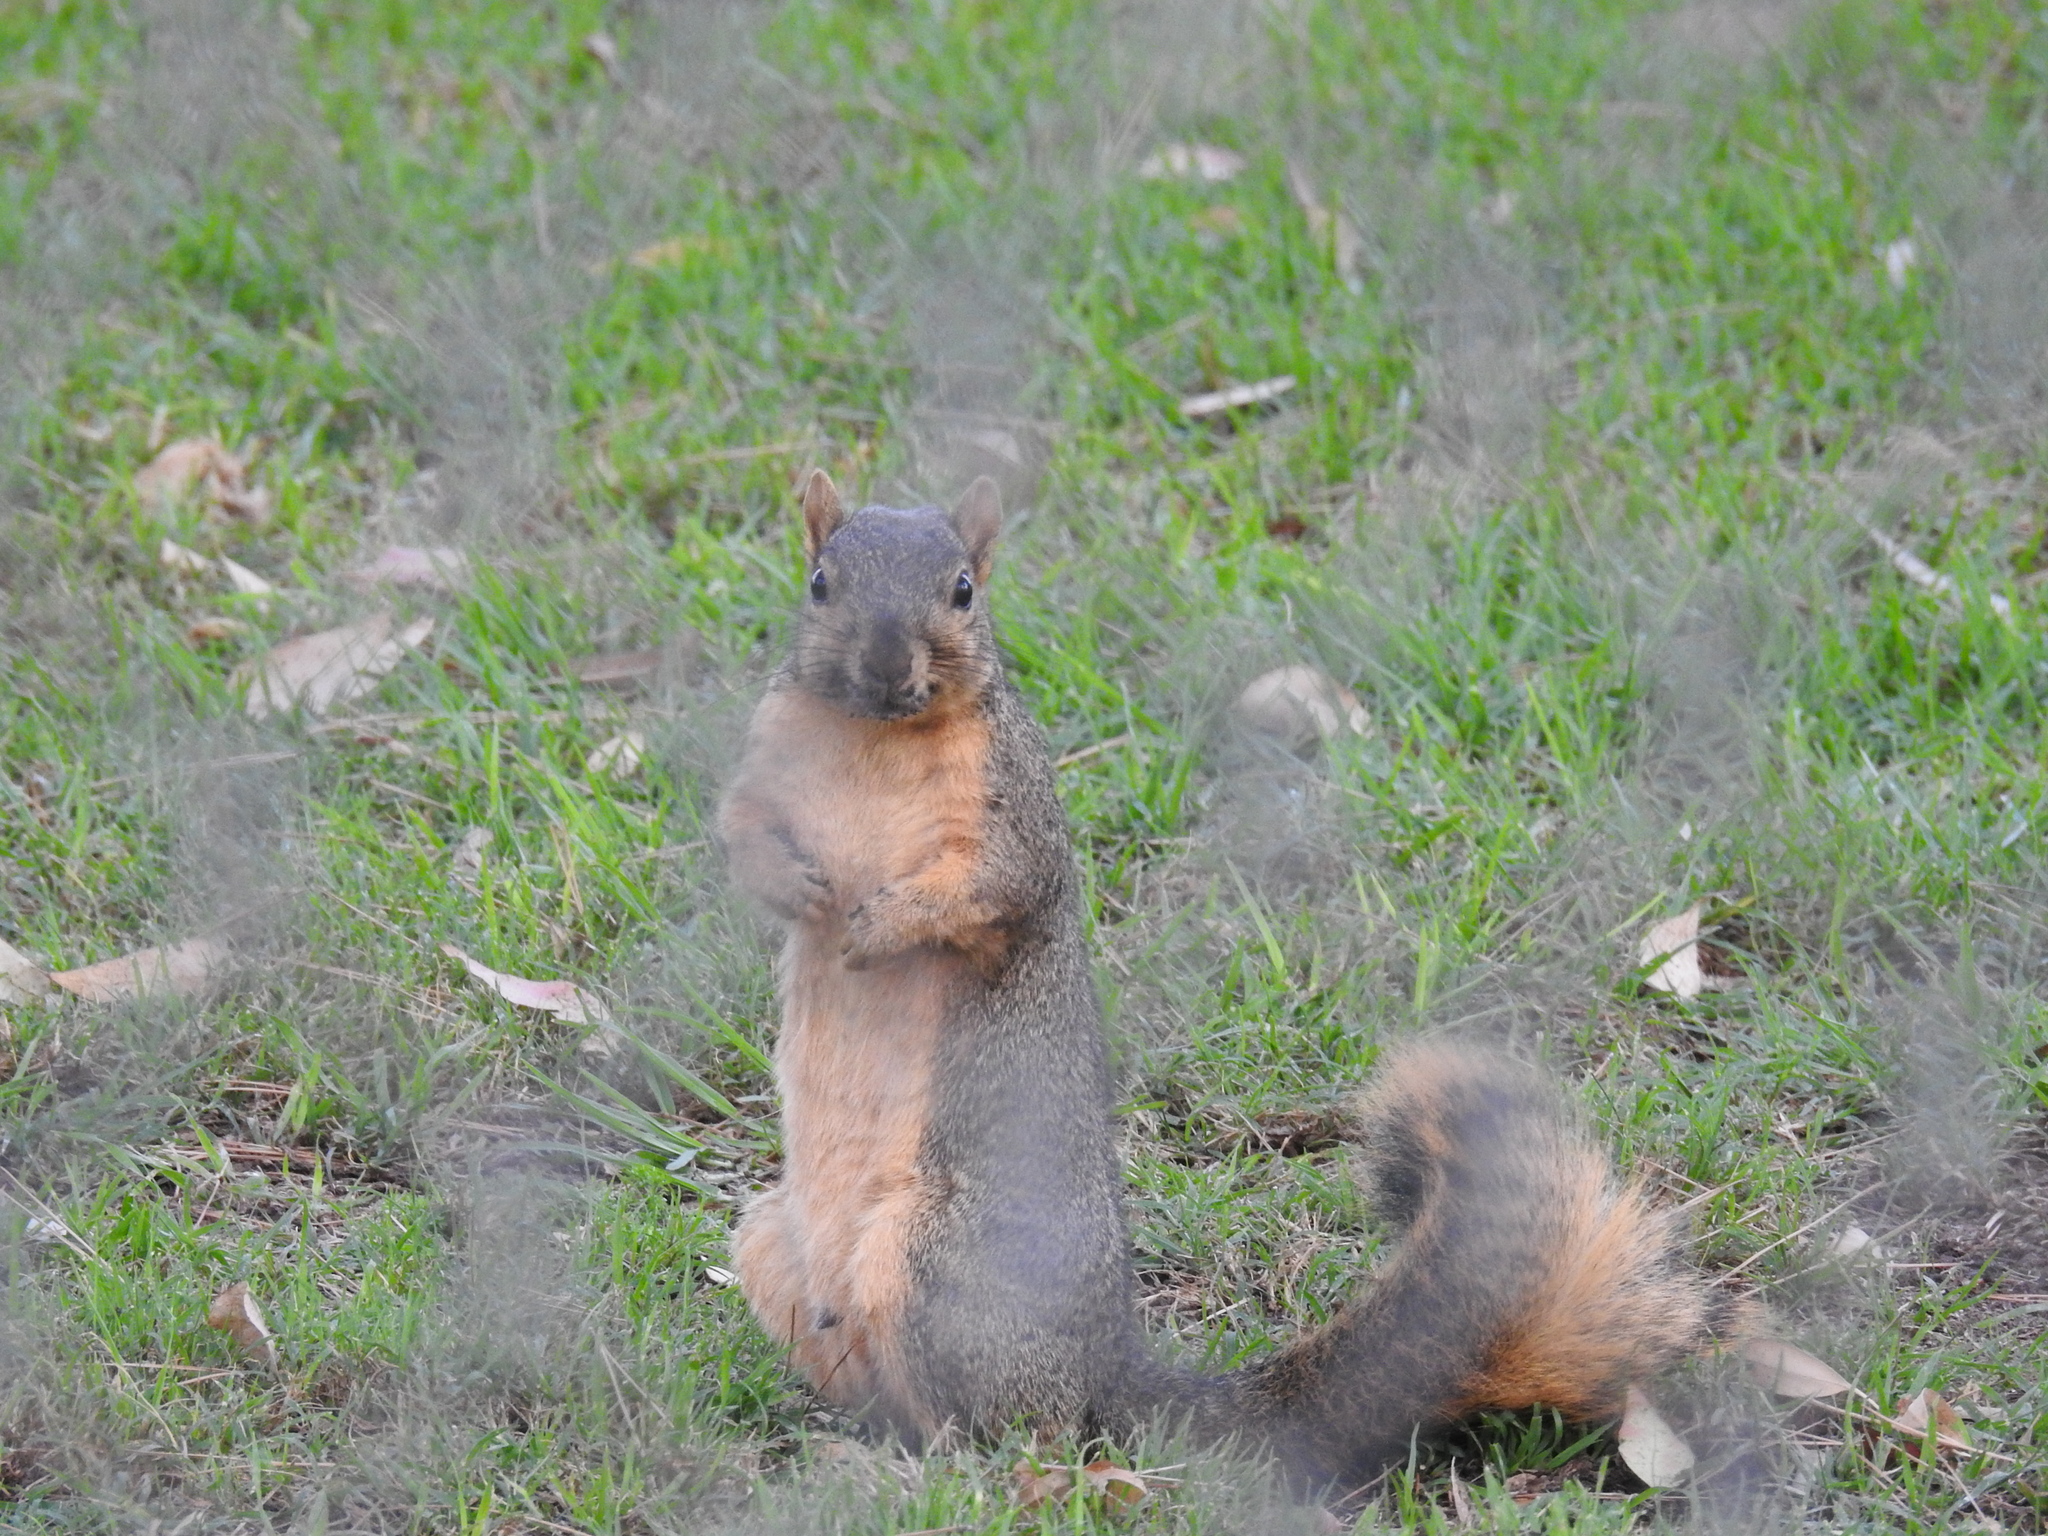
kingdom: Animalia
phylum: Chordata
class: Mammalia
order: Rodentia
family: Sciuridae
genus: Sciurus
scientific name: Sciurus niger
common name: Fox squirrel
